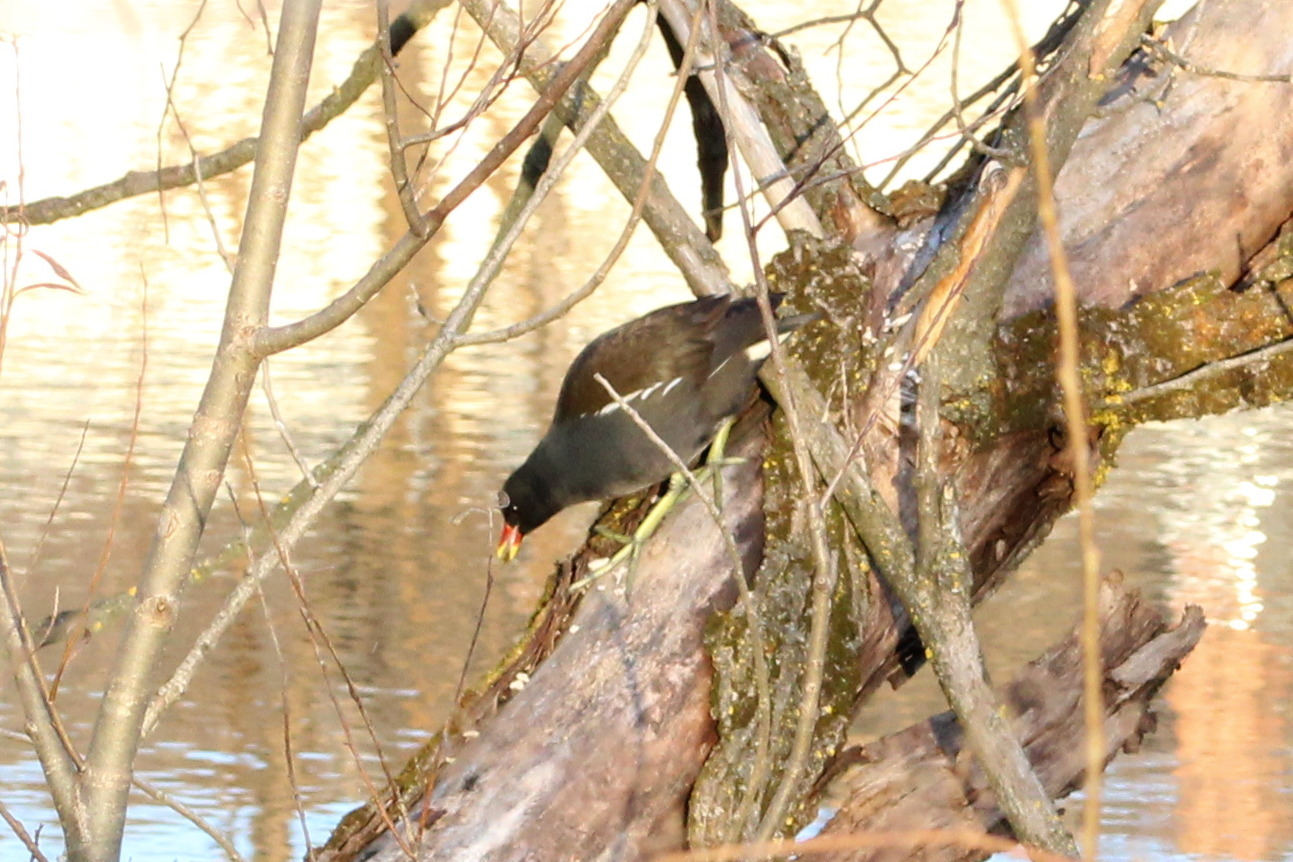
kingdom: Animalia
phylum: Chordata
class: Aves
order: Gruiformes
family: Rallidae
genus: Gallinula
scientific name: Gallinula chloropus
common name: Common moorhen
